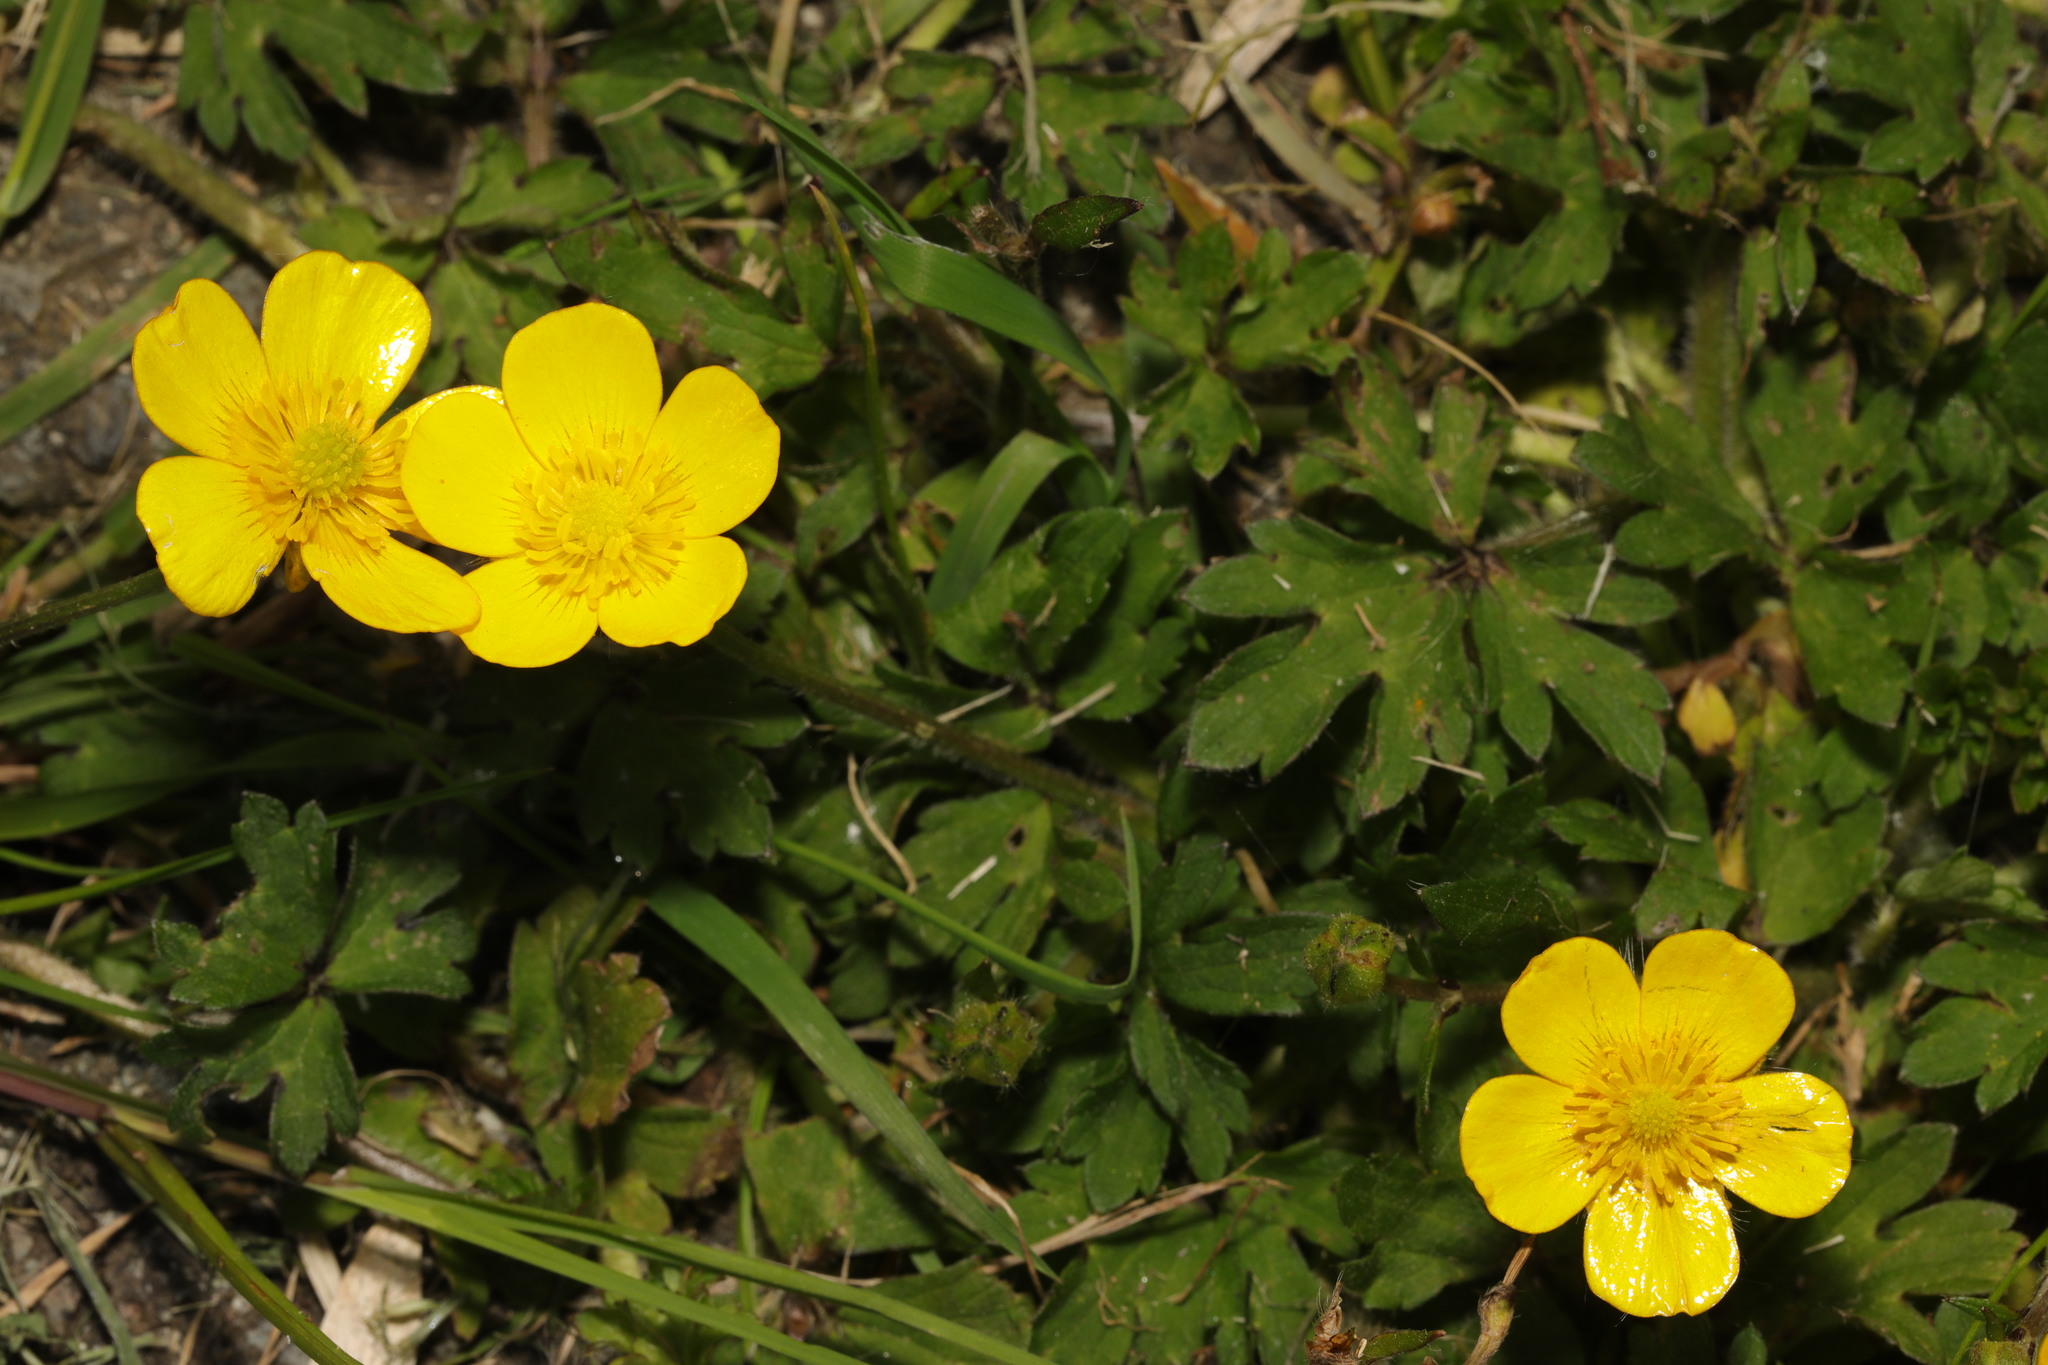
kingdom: Plantae
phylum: Tracheophyta
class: Magnoliopsida
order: Ranunculales
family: Ranunculaceae
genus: Ranunculus
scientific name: Ranunculus repens
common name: Creeping buttercup
